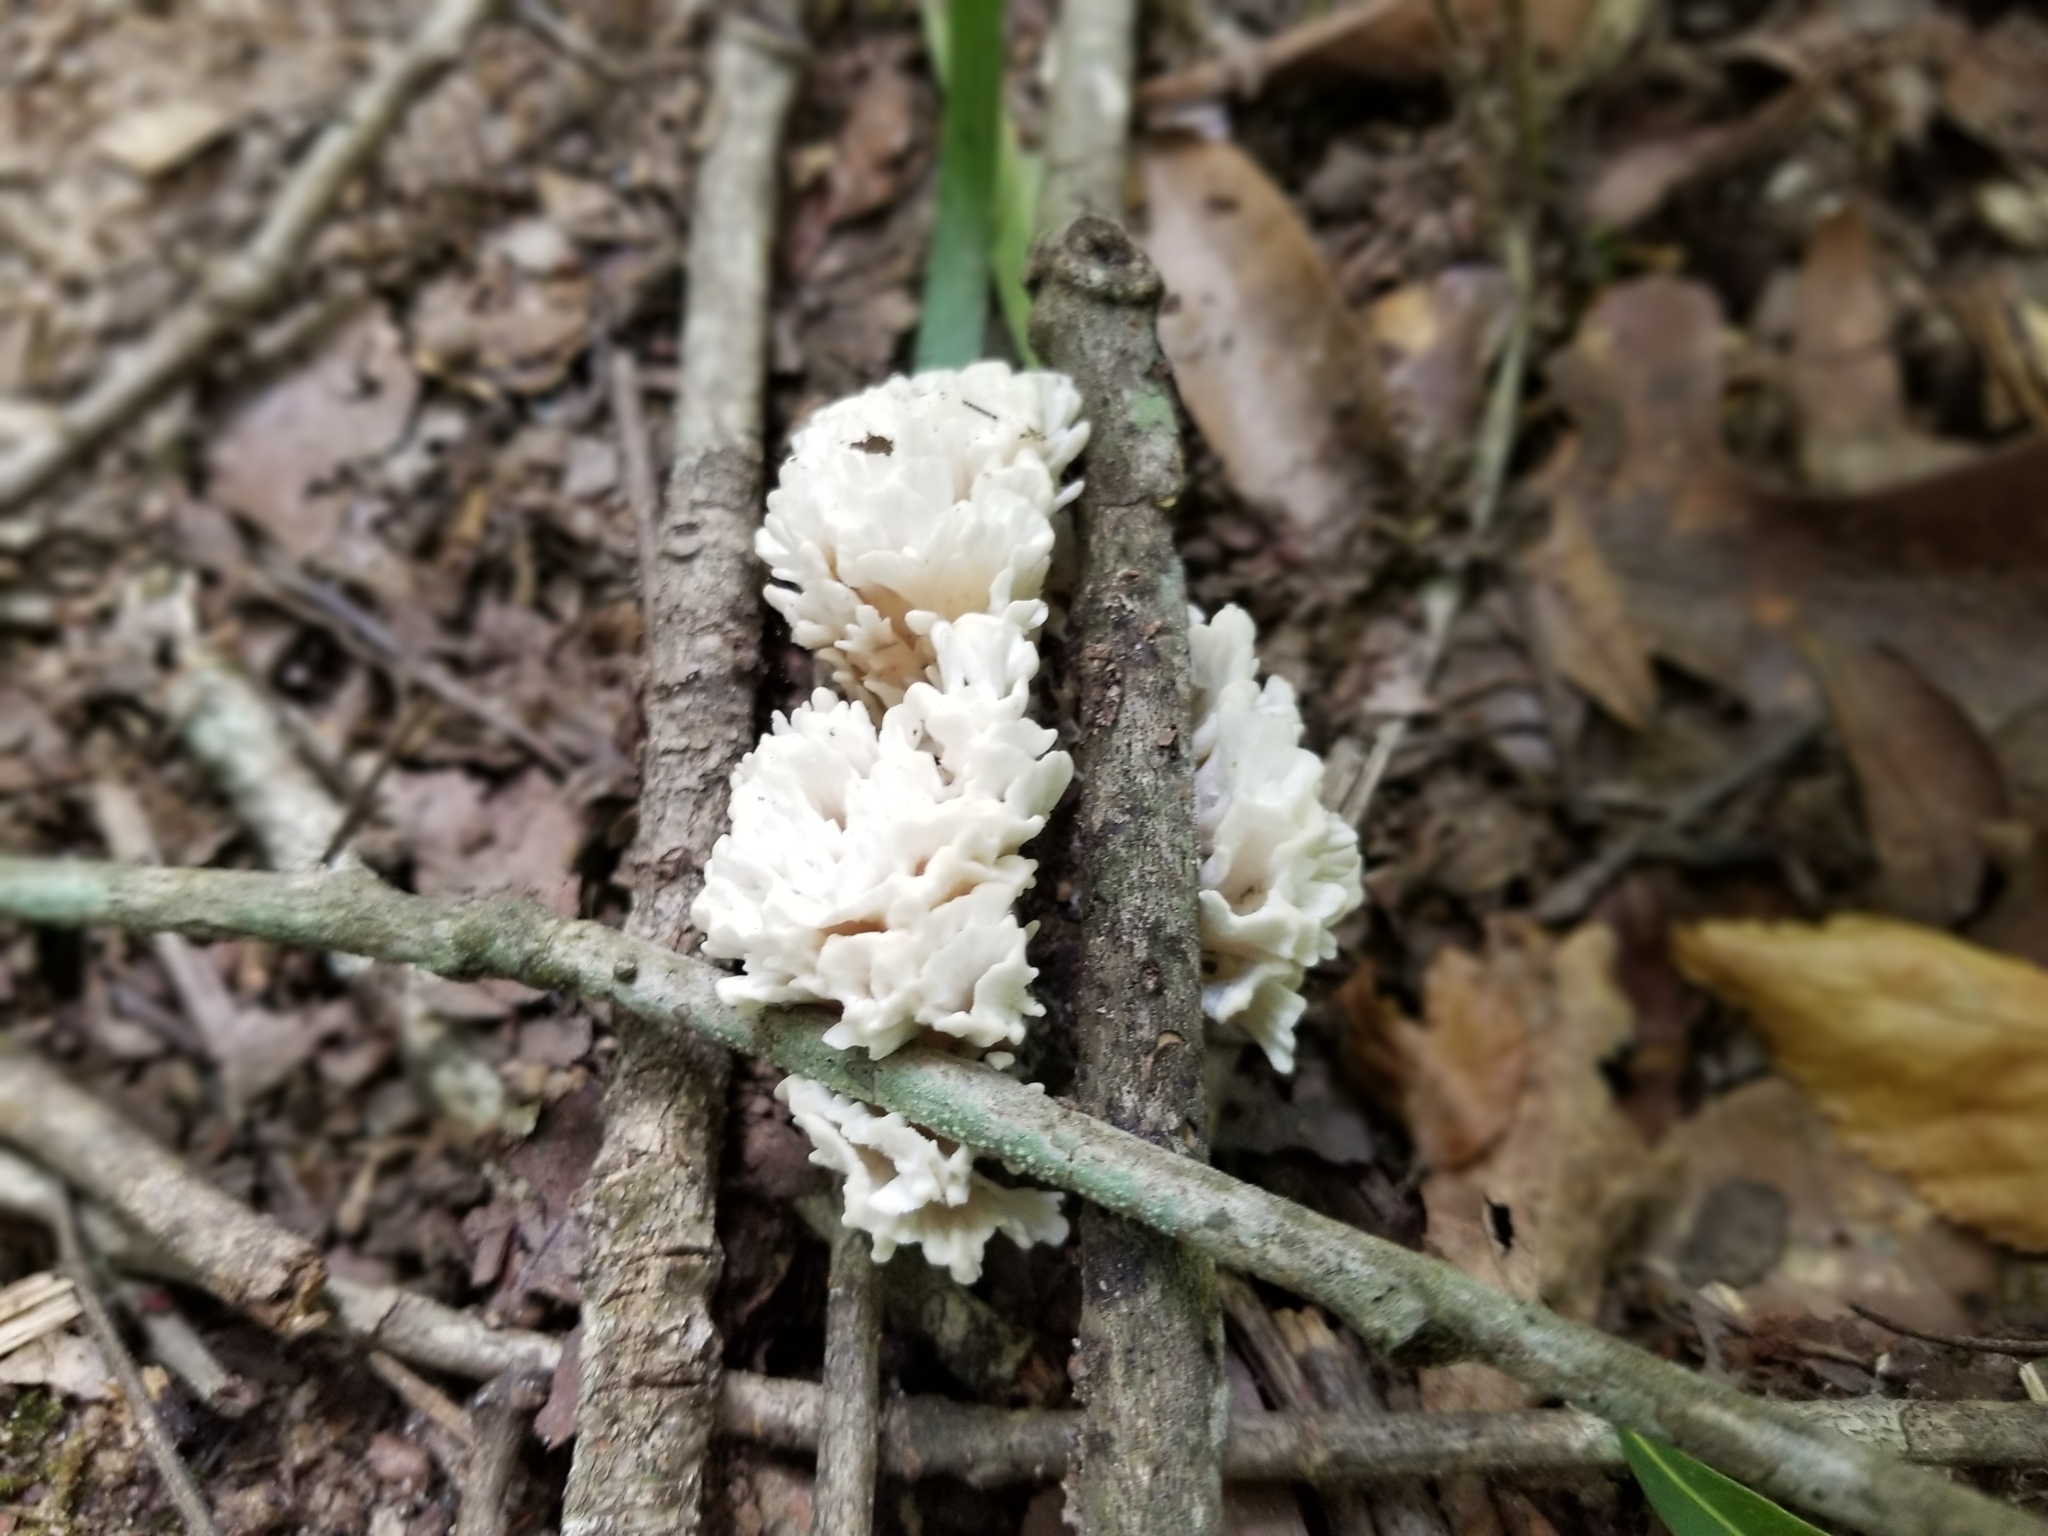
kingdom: Fungi
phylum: Basidiomycota
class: Agaricomycetes
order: Sebacinales
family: Sebacinaceae
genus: Sebacina
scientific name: Sebacina schweinitzii
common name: Jellied false coral fungus
